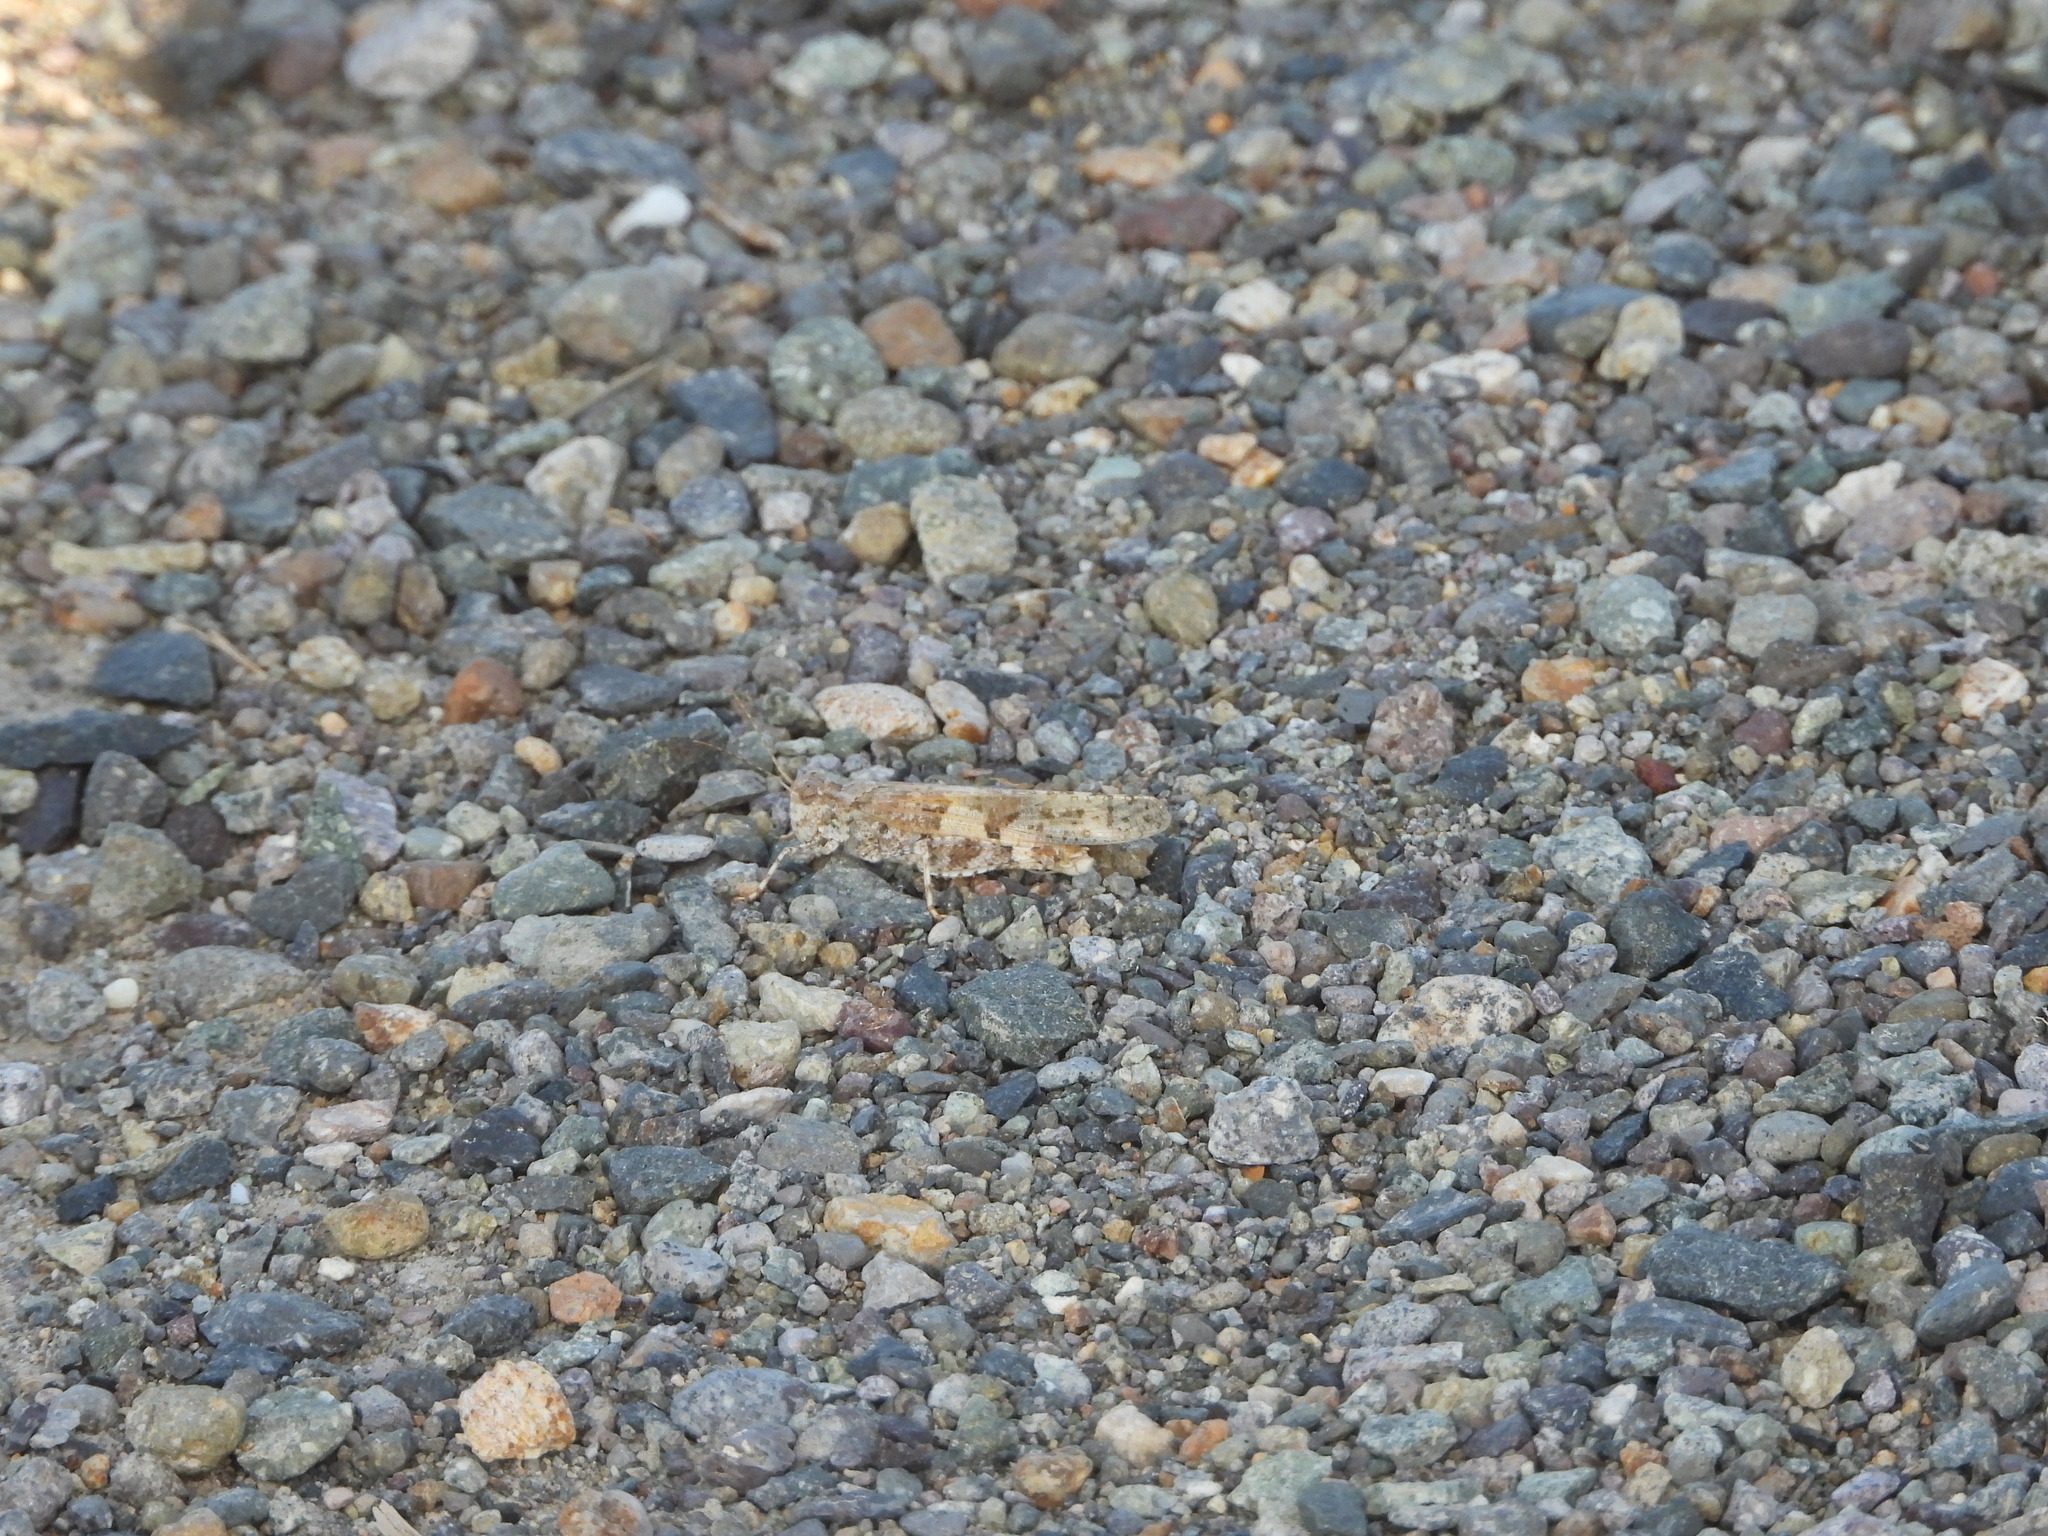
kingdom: Animalia
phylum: Arthropoda
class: Insecta
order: Orthoptera
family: Acrididae
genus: Trimerotropis
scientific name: Trimerotropis salina
